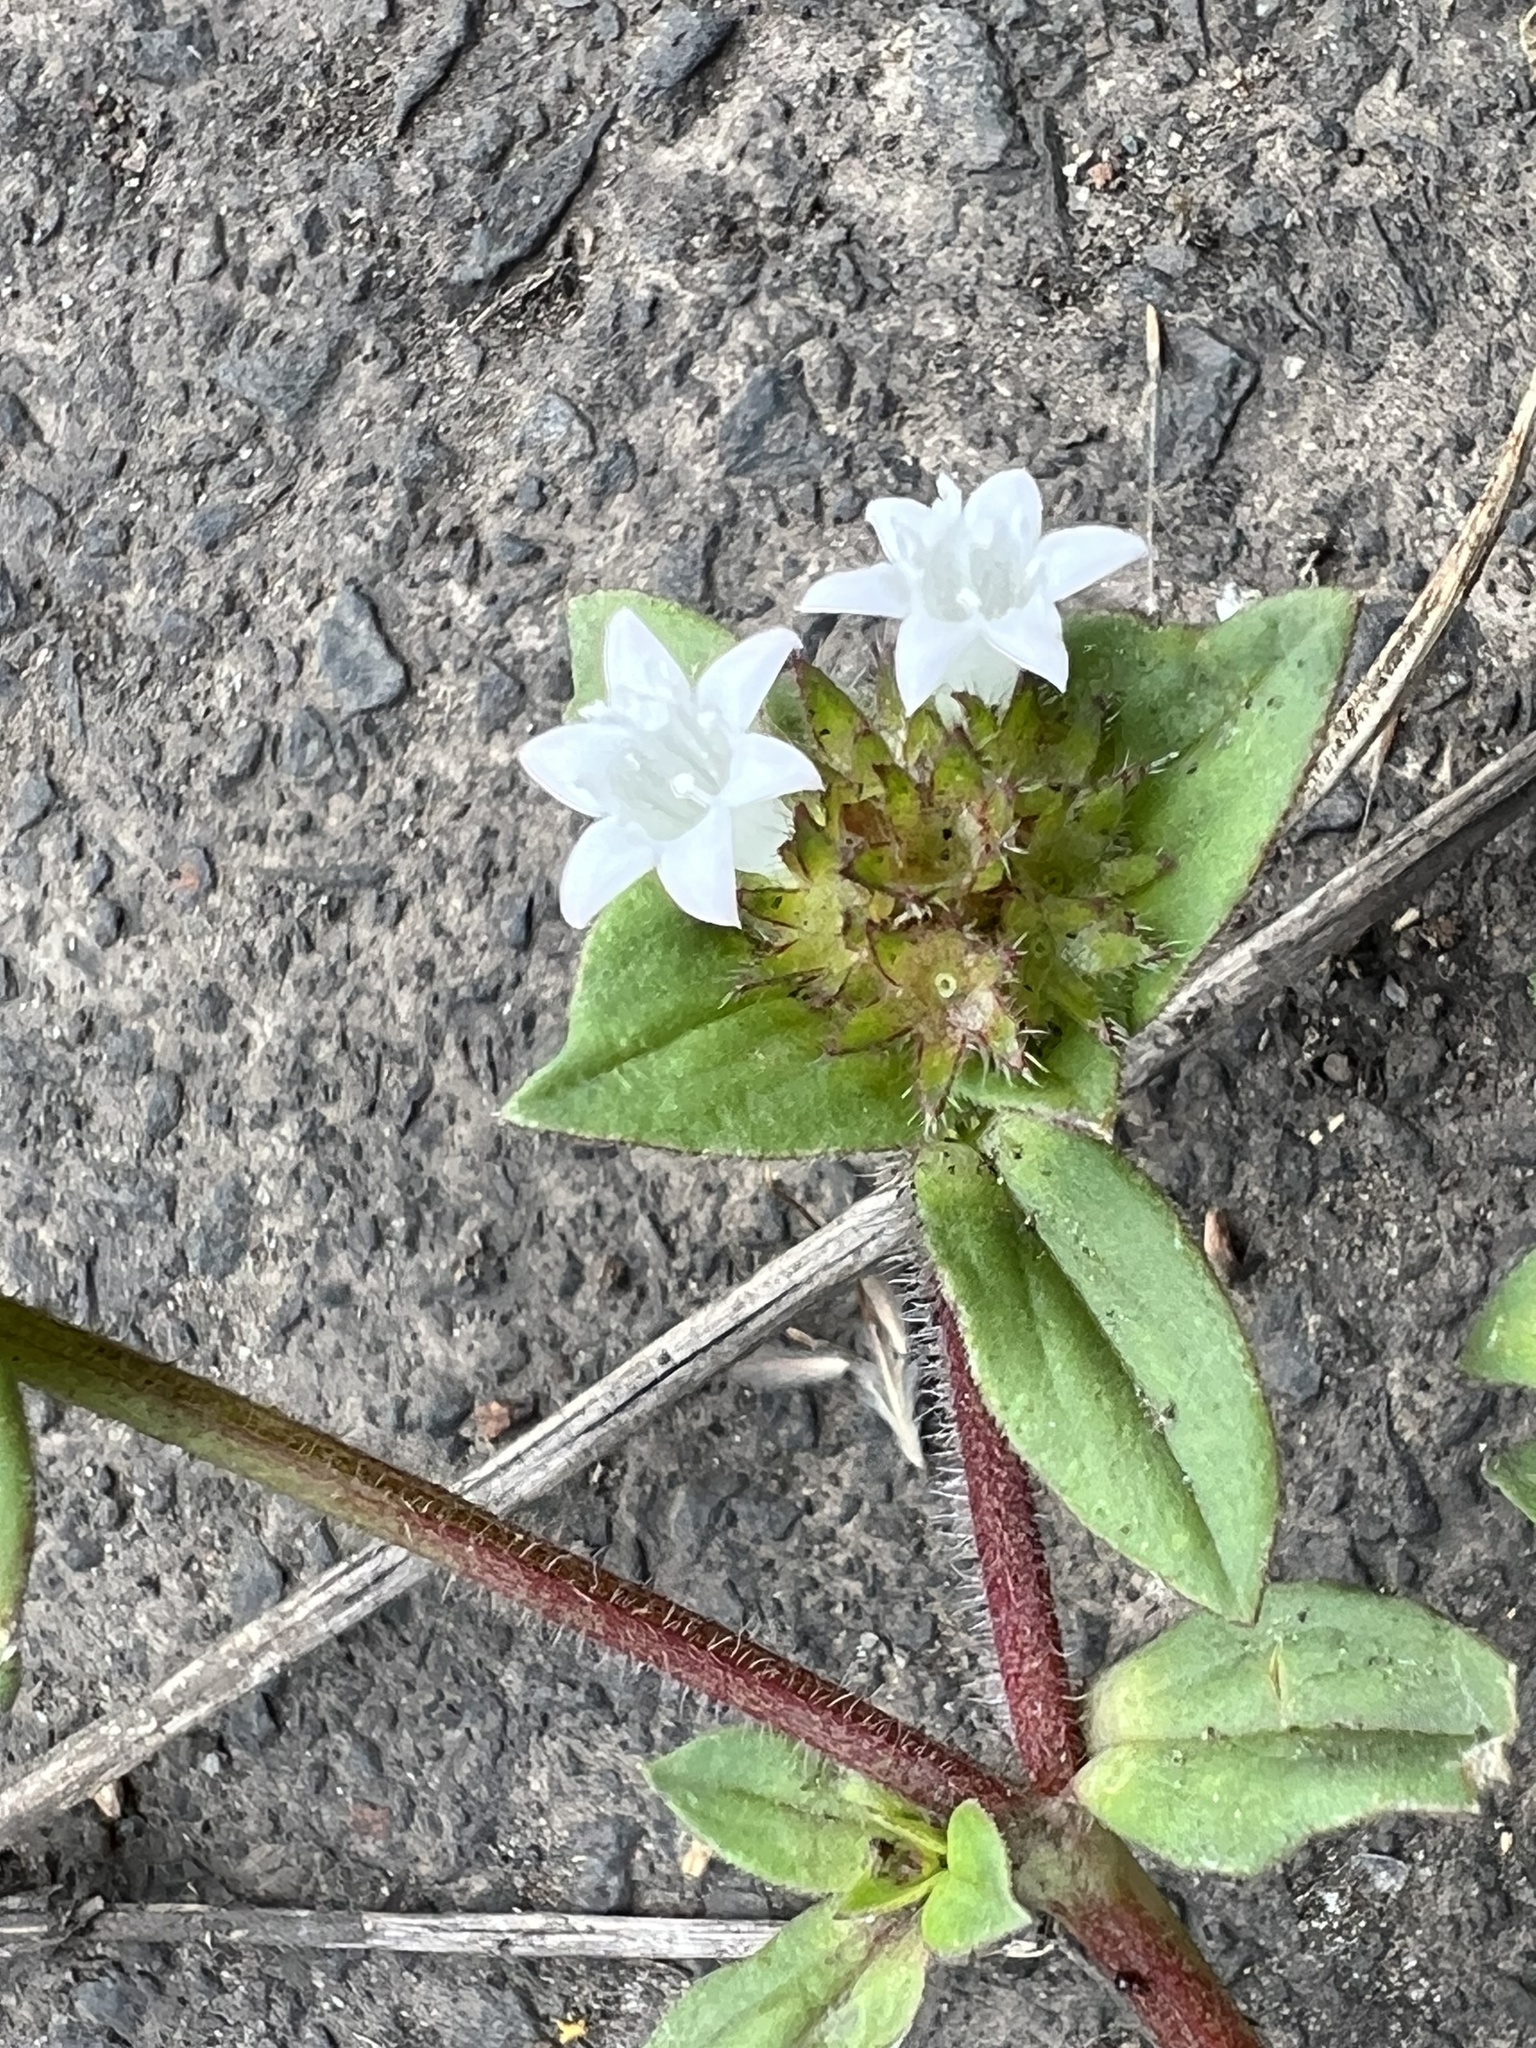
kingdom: Plantae
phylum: Tracheophyta
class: Magnoliopsida
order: Gentianales
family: Rubiaceae
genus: Richardia
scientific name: Richardia brasiliensis
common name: Tropical mexican clover
